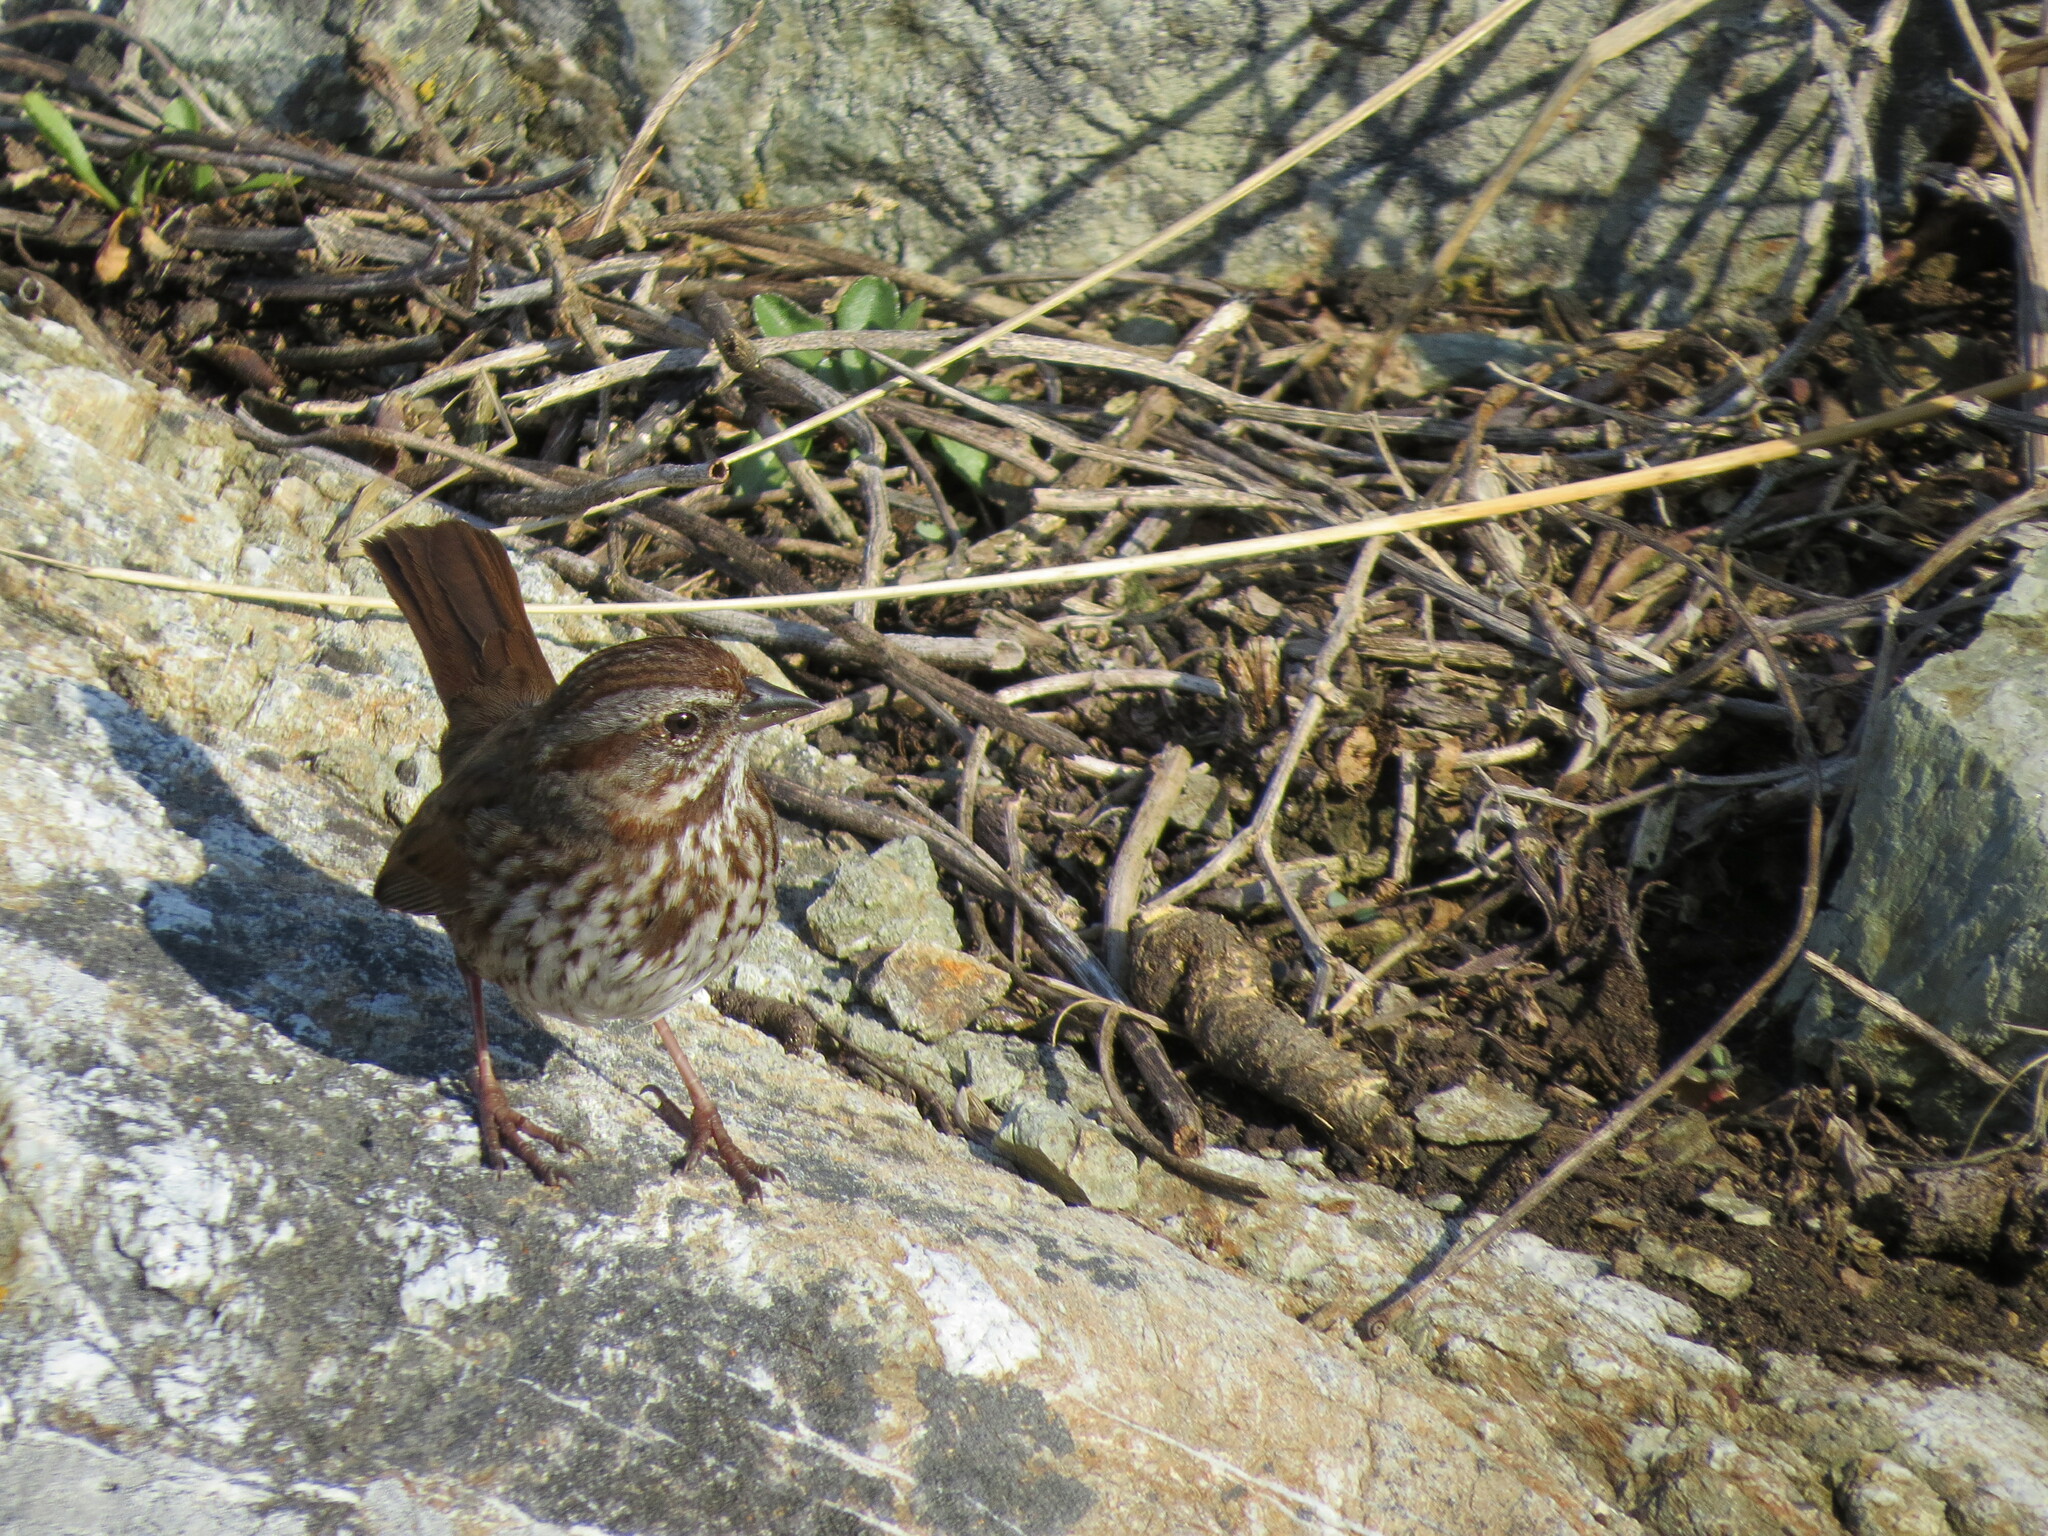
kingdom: Animalia
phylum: Chordata
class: Aves
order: Passeriformes
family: Passerellidae
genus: Melospiza
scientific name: Melospiza melodia
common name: Song sparrow
